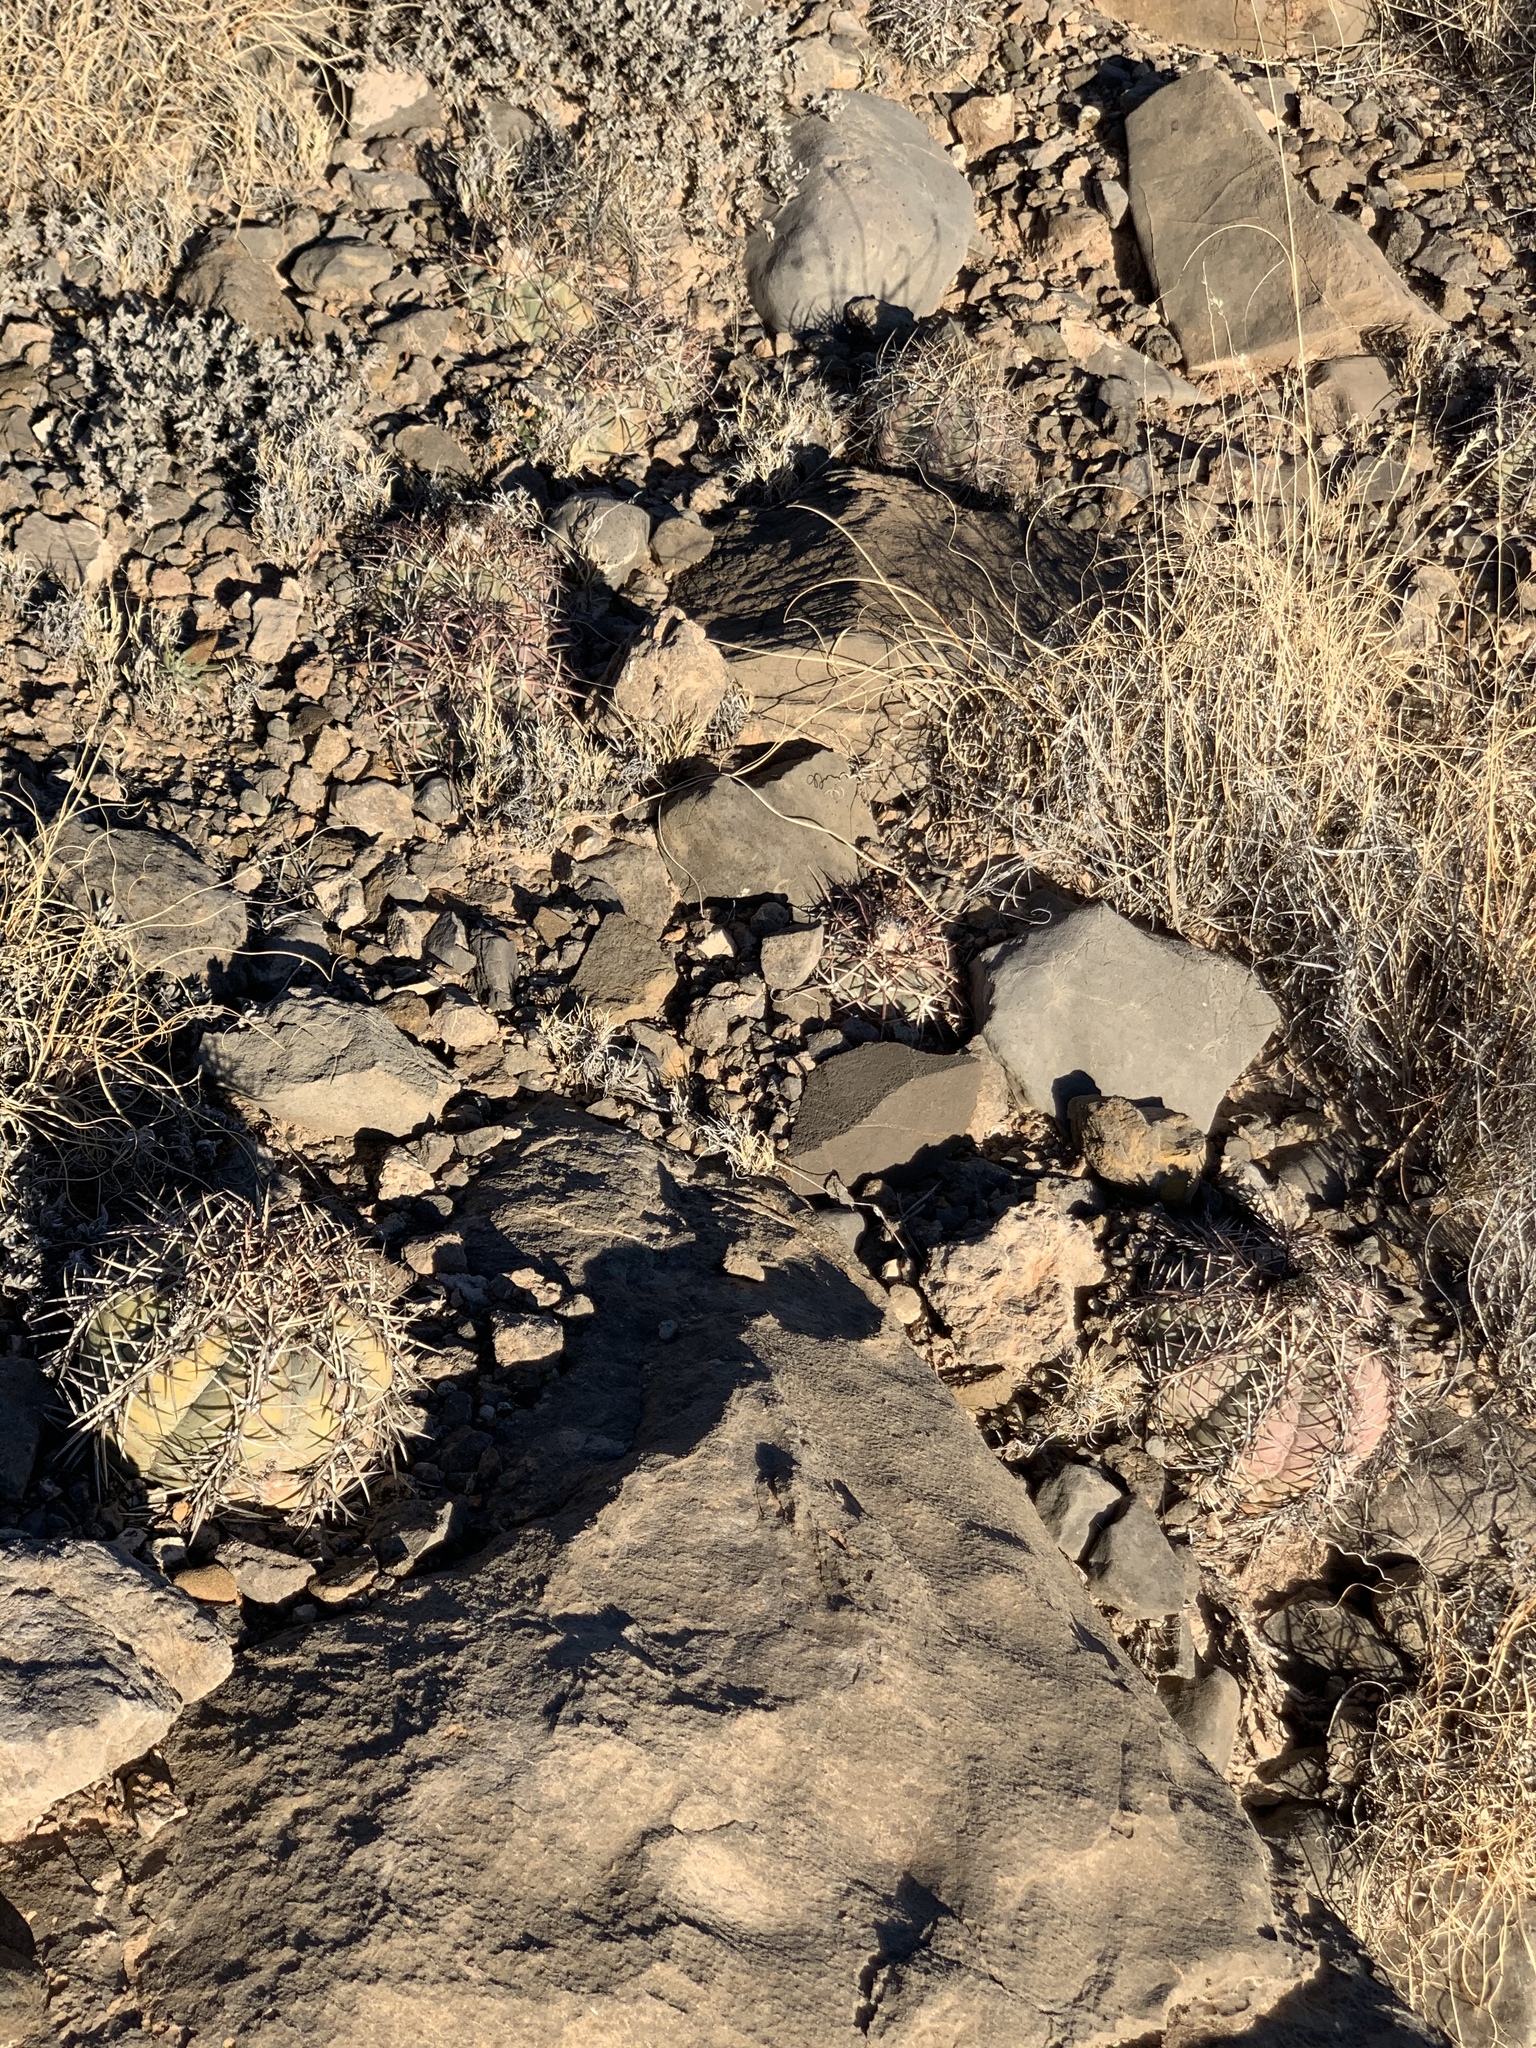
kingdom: Plantae
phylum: Tracheophyta
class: Magnoliopsida
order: Caryophyllales
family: Cactaceae
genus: Echinocactus
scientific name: Echinocactus horizonthalonius
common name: Devilshead
